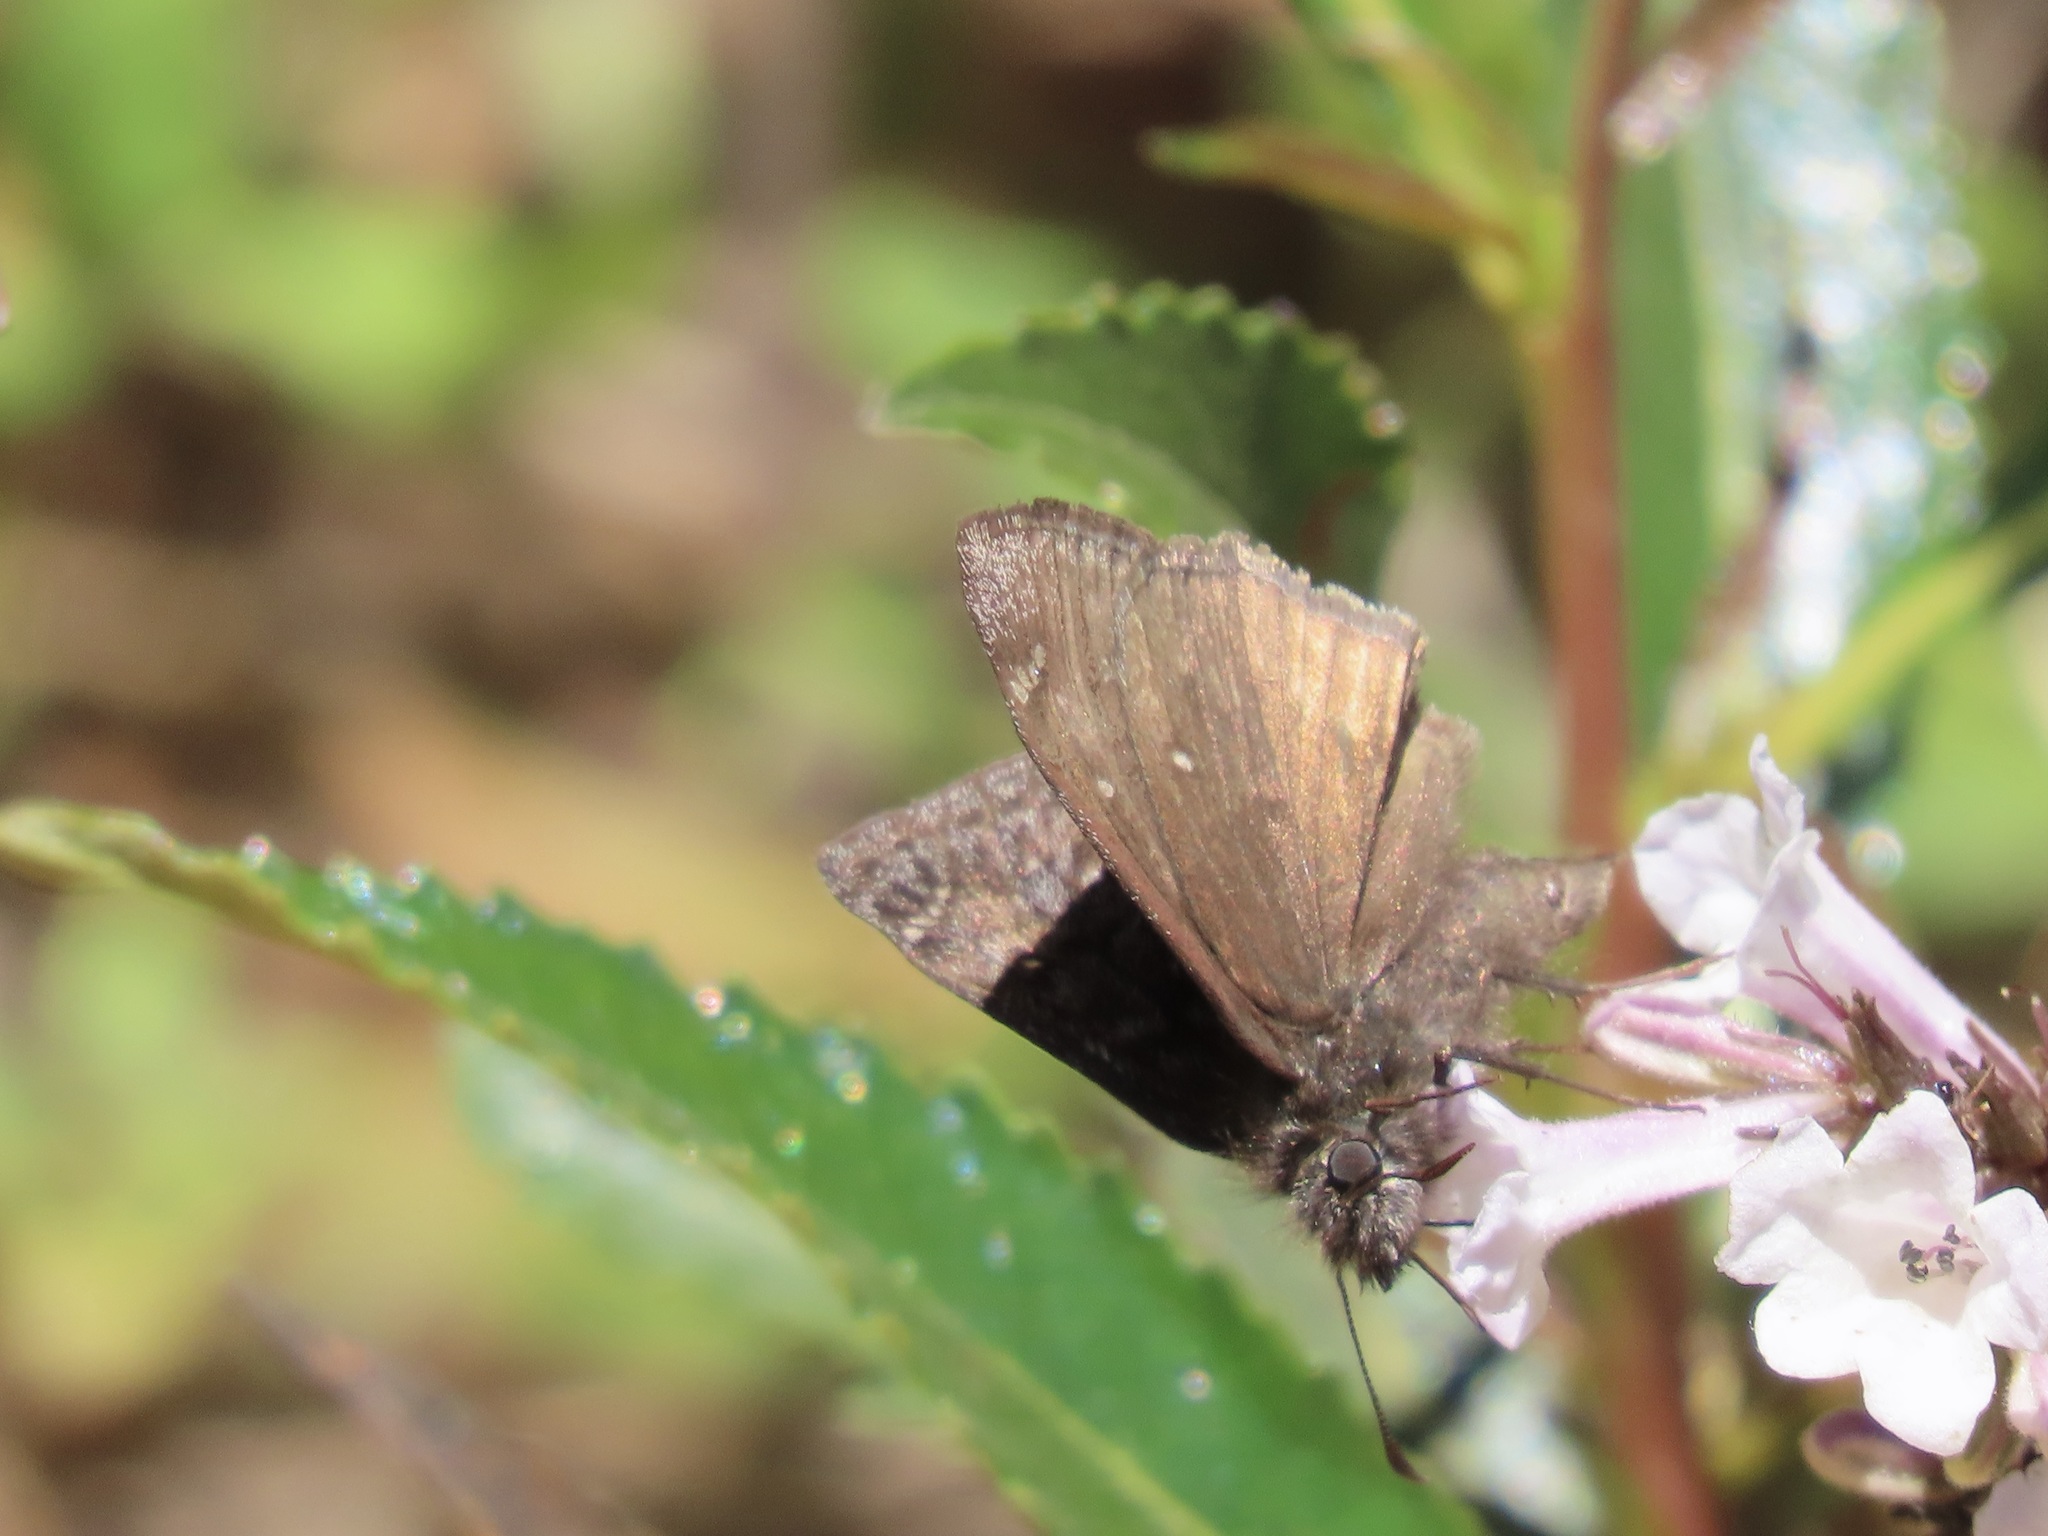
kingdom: Animalia
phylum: Arthropoda
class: Insecta
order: Lepidoptera
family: Hesperiidae
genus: Erynnis
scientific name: Erynnis propertius
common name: Propertius duskywing
